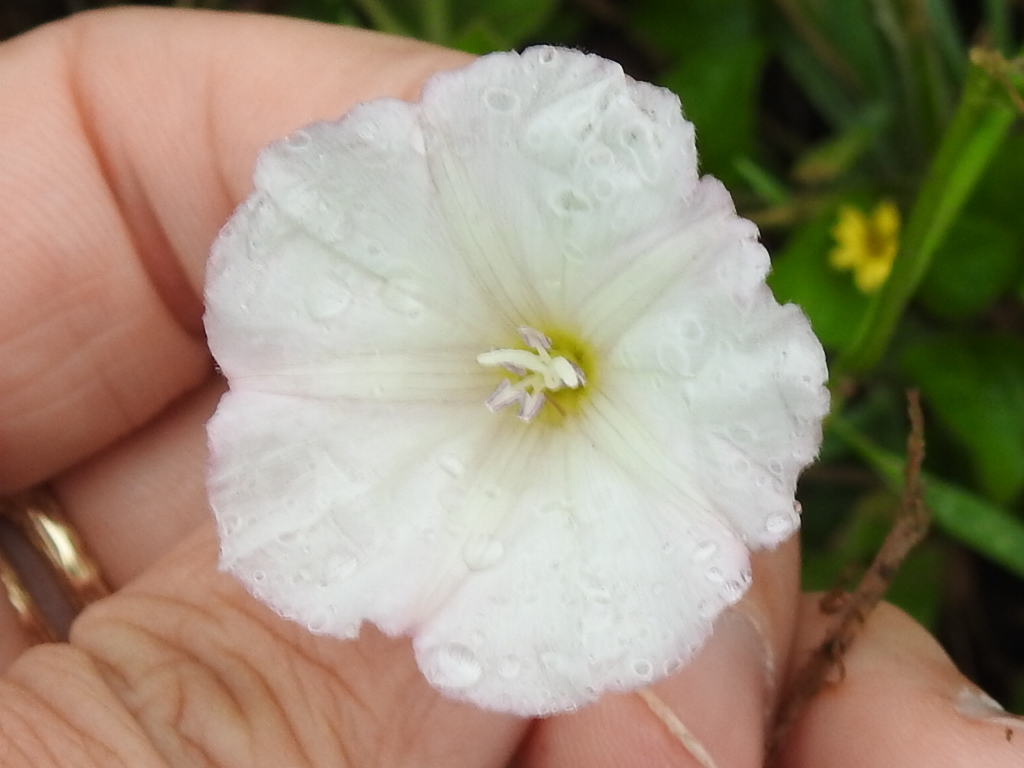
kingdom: Plantae
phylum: Tracheophyta
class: Magnoliopsida
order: Solanales
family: Convolvulaceae
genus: Convolvulus
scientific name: Convolvulus arvensis
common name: Field bindweed
